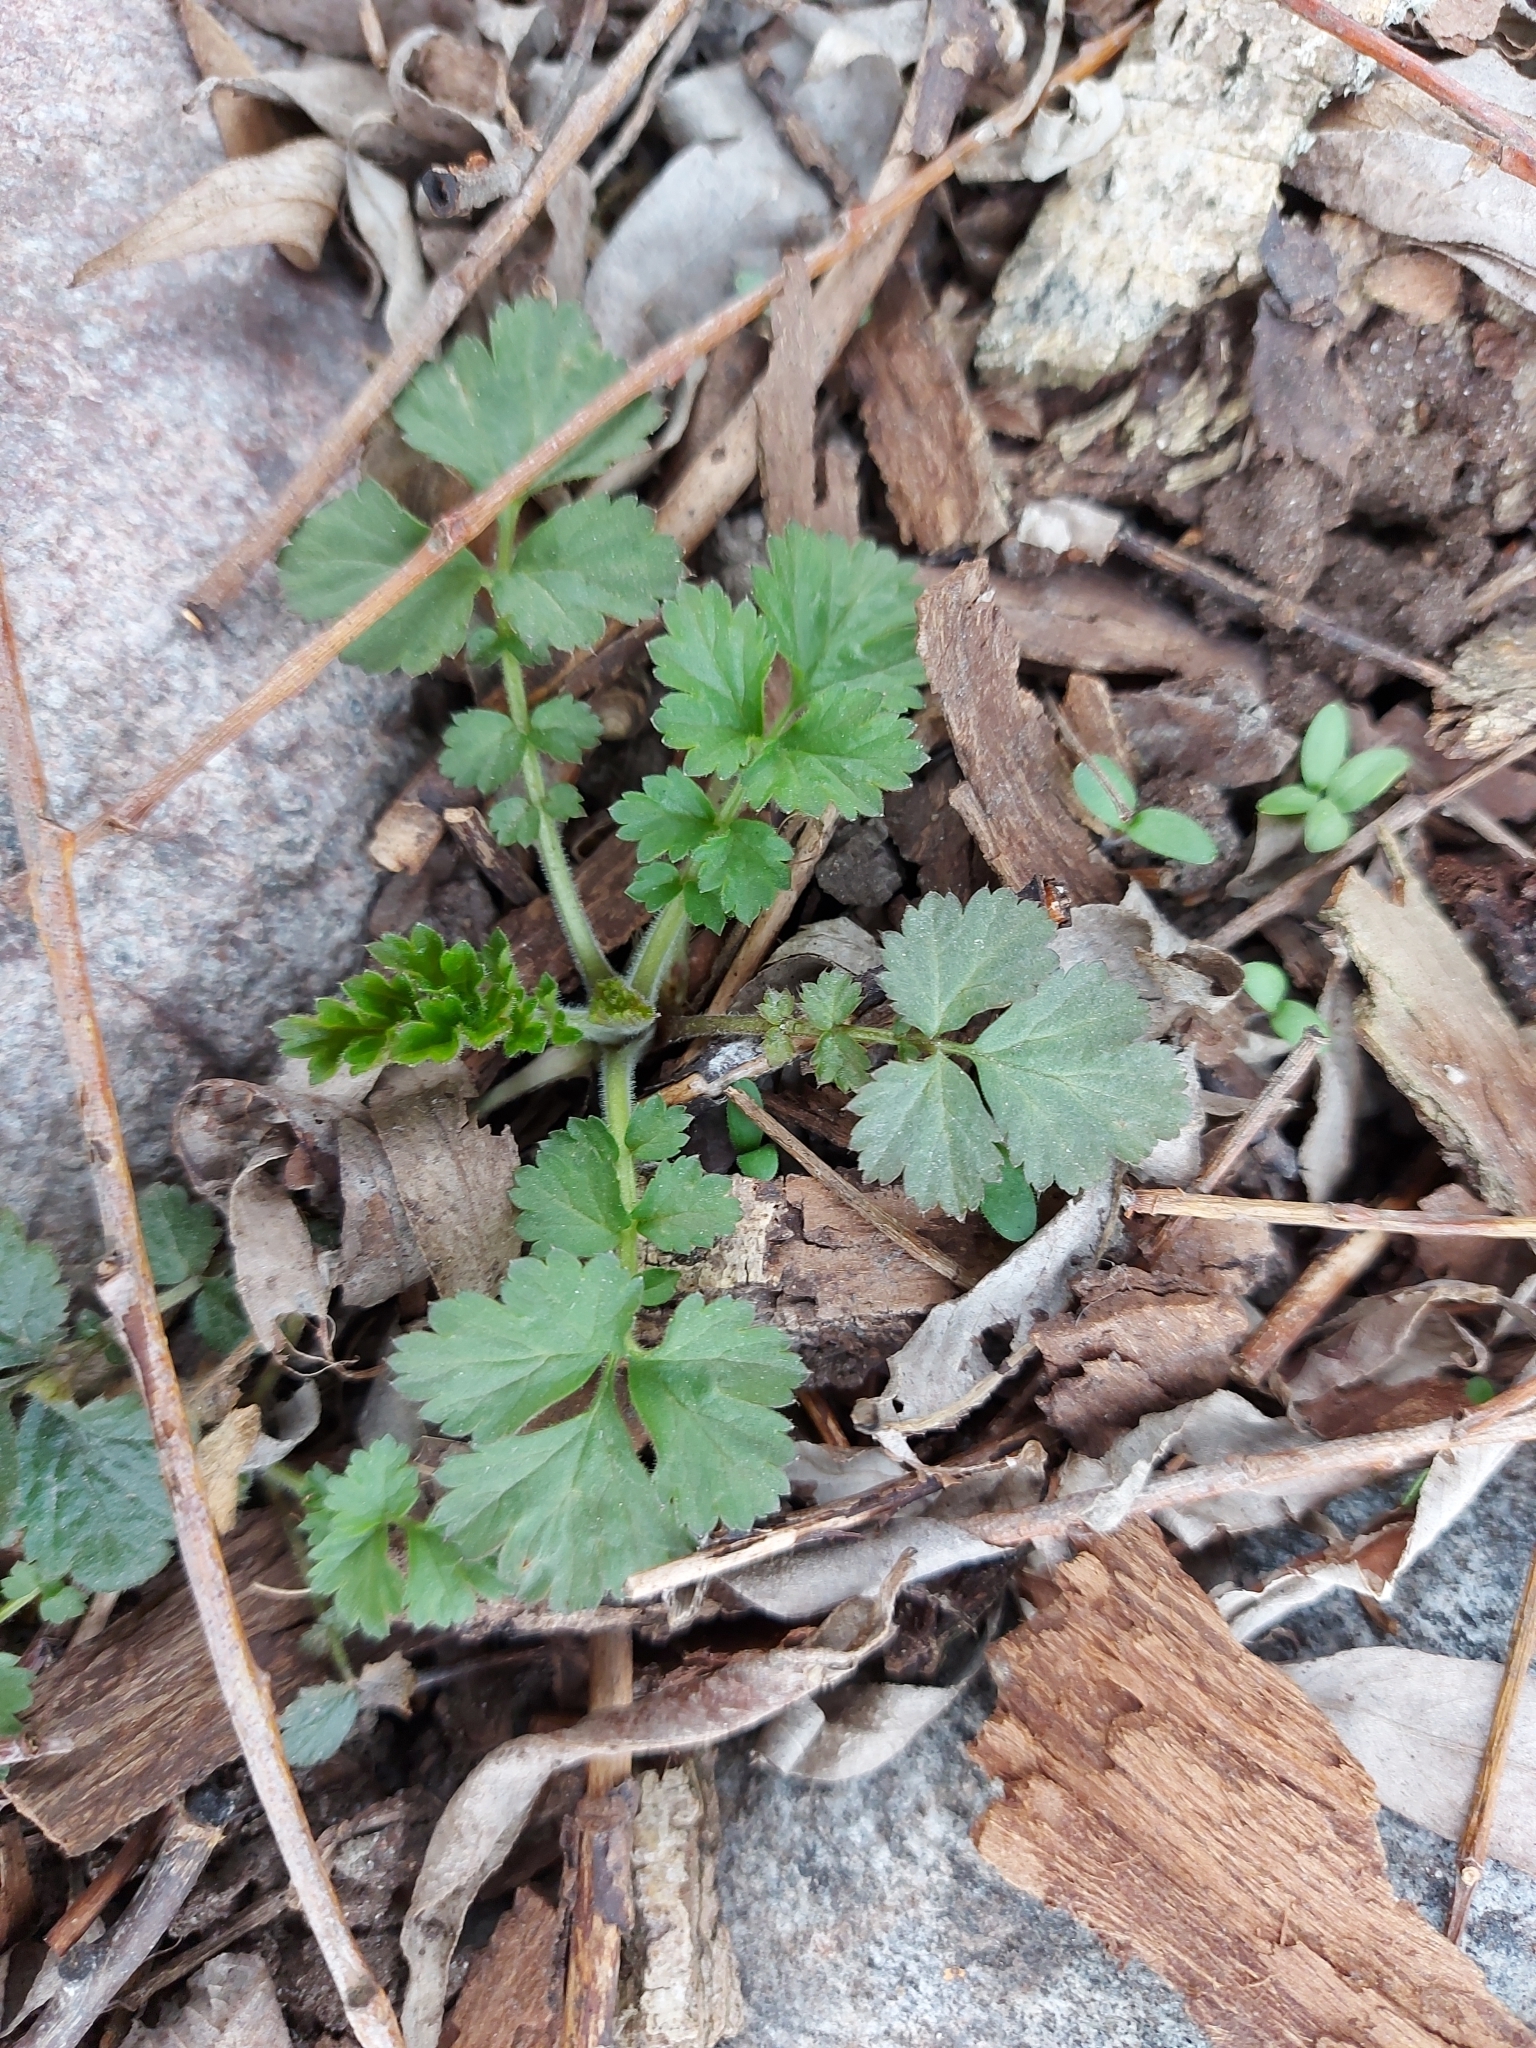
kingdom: Plantae
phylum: Tracheophyta
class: Magnoliopsida
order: Rosales
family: Rosaceae
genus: Geum
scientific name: Geum urbanum
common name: Wood avens
